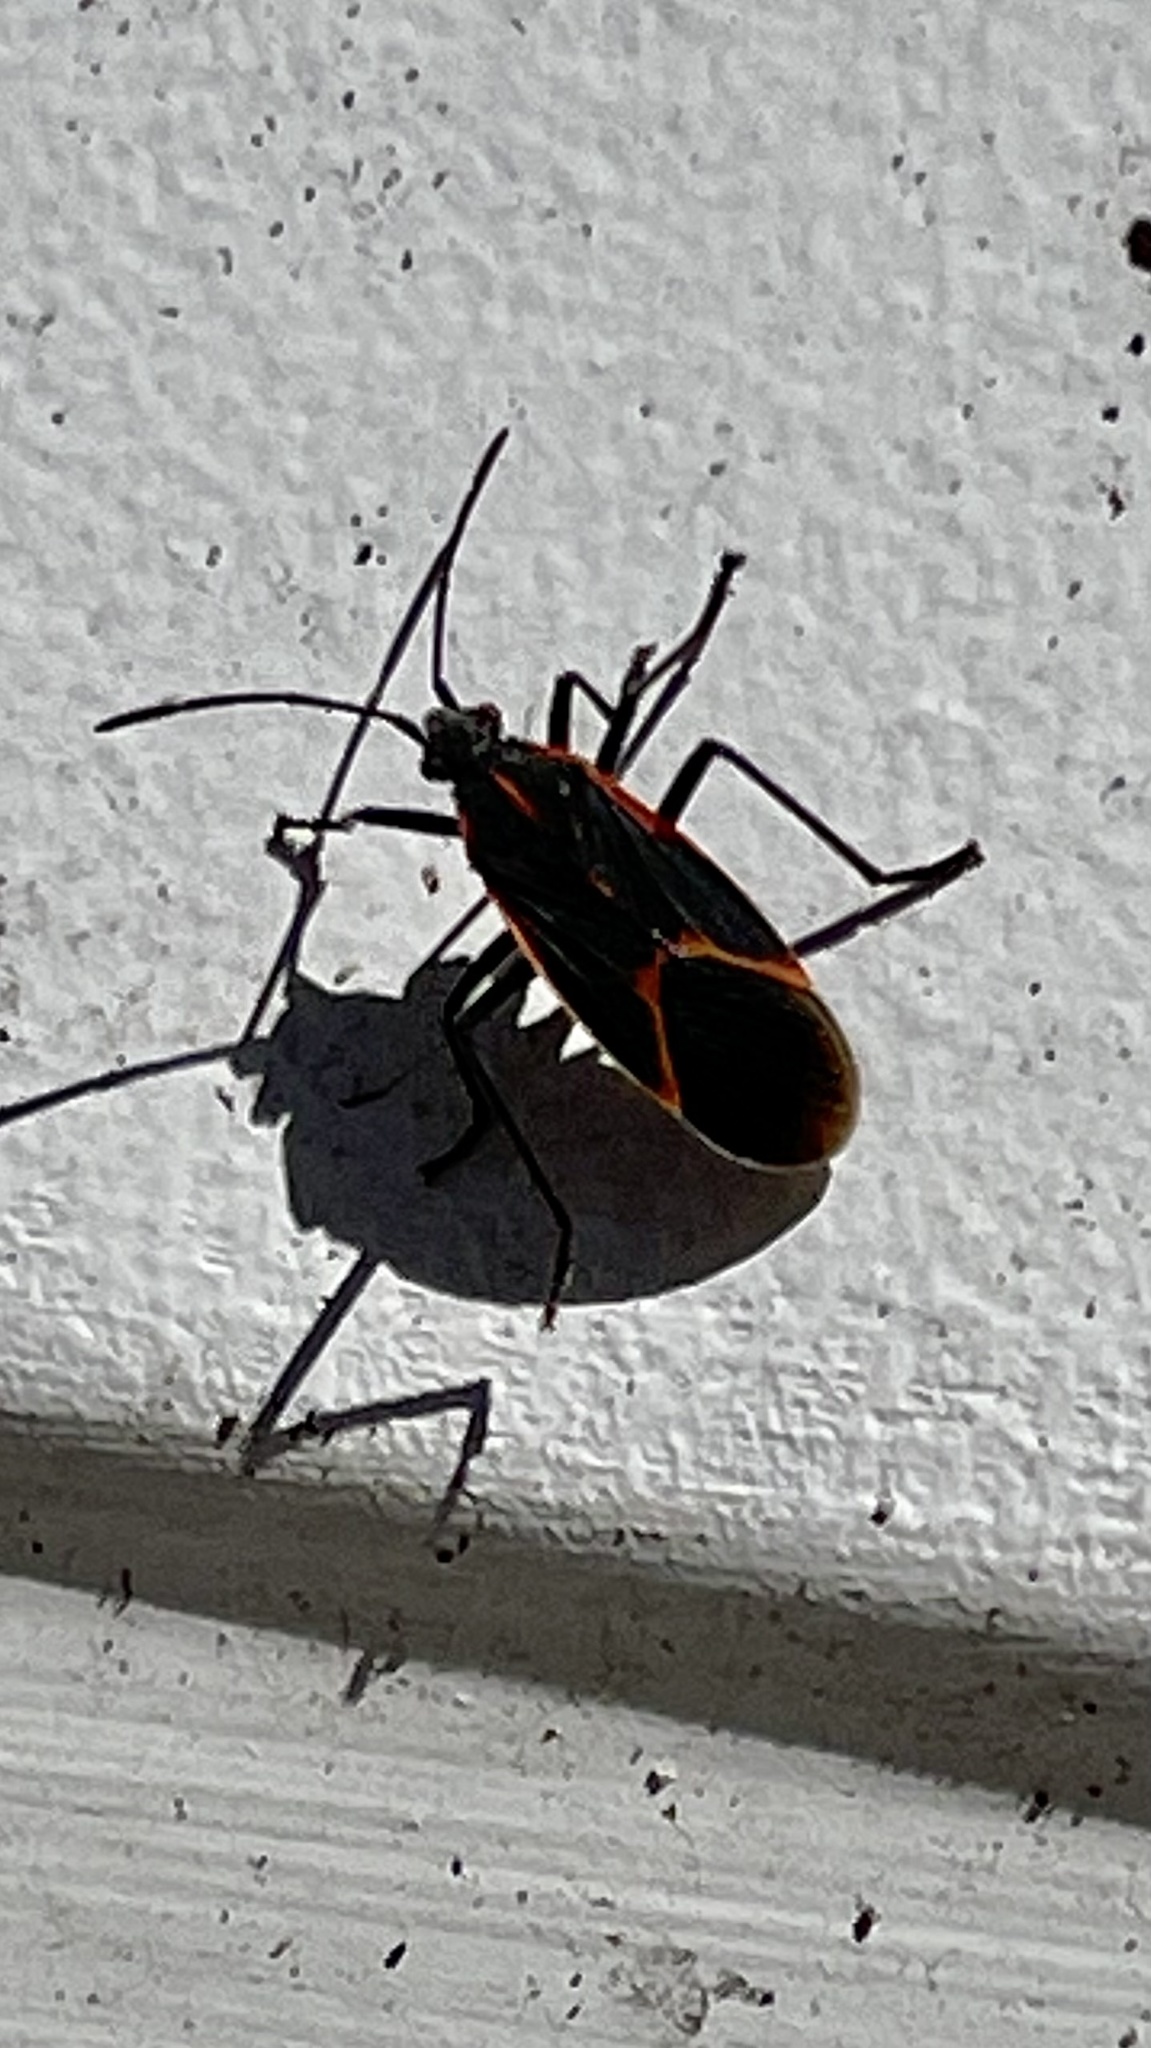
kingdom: Animalia
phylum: Arthropoda
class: Insecta
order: Hemiptera
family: Rhopalidae
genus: Boisea
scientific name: Boisea trivittata
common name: Boxelder bug
